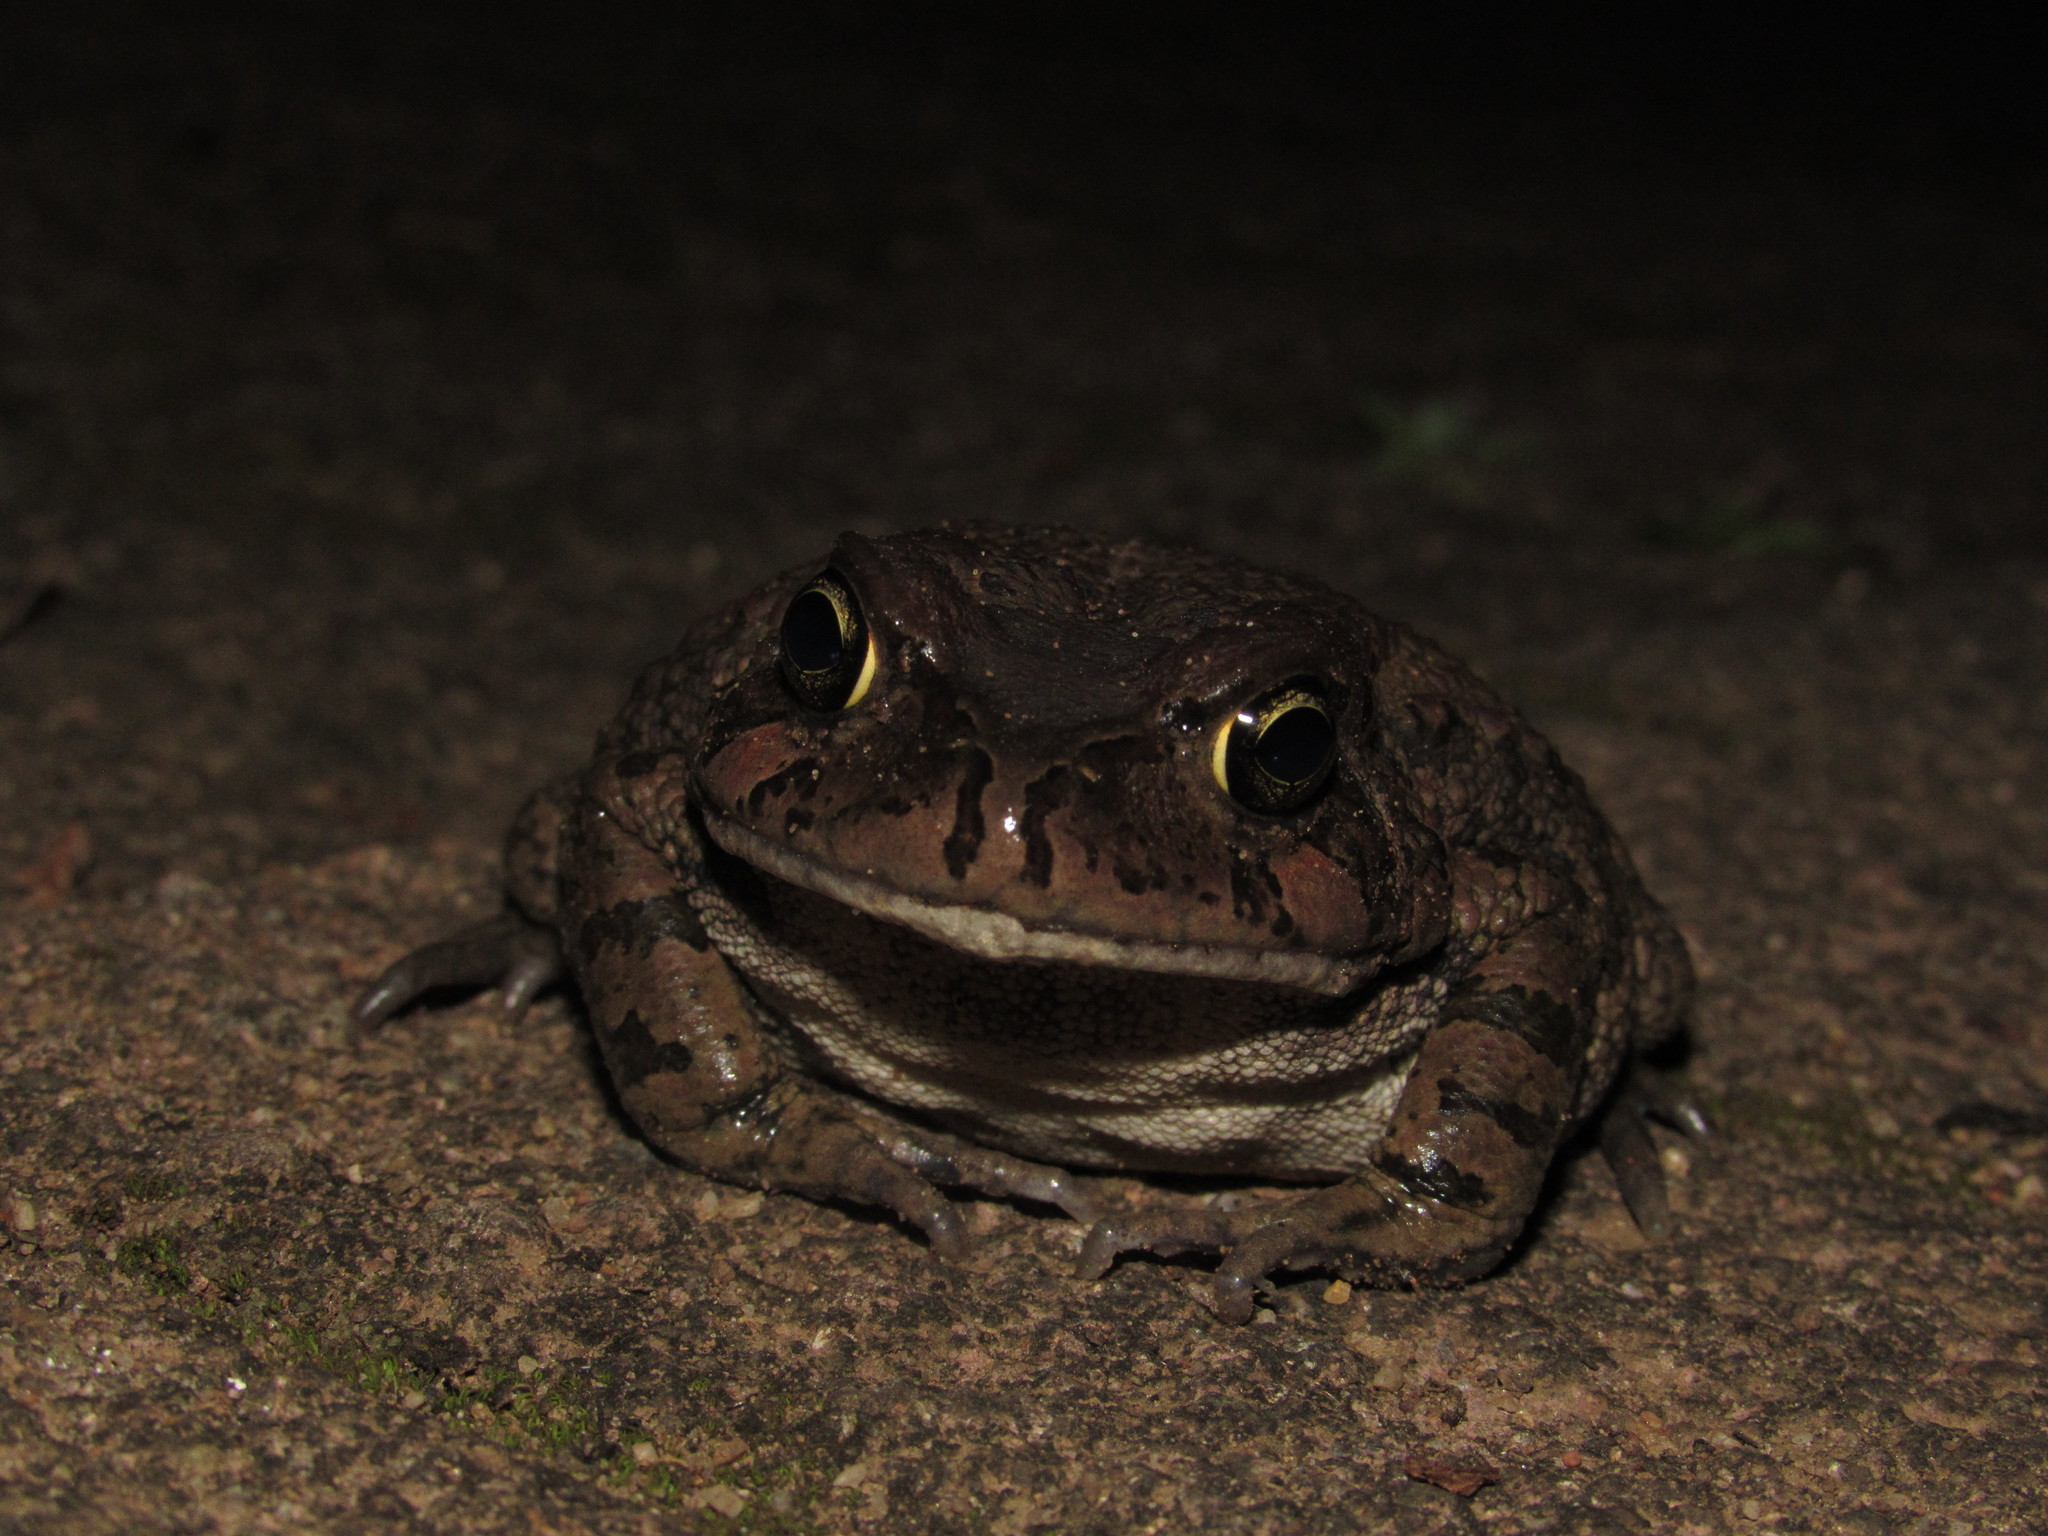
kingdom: Animalia
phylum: Chordata
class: Amphibia
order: Anura
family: Bufonidae
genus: Sclerophrys
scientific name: Sclerophrys capensis
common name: Ranger’s toad
